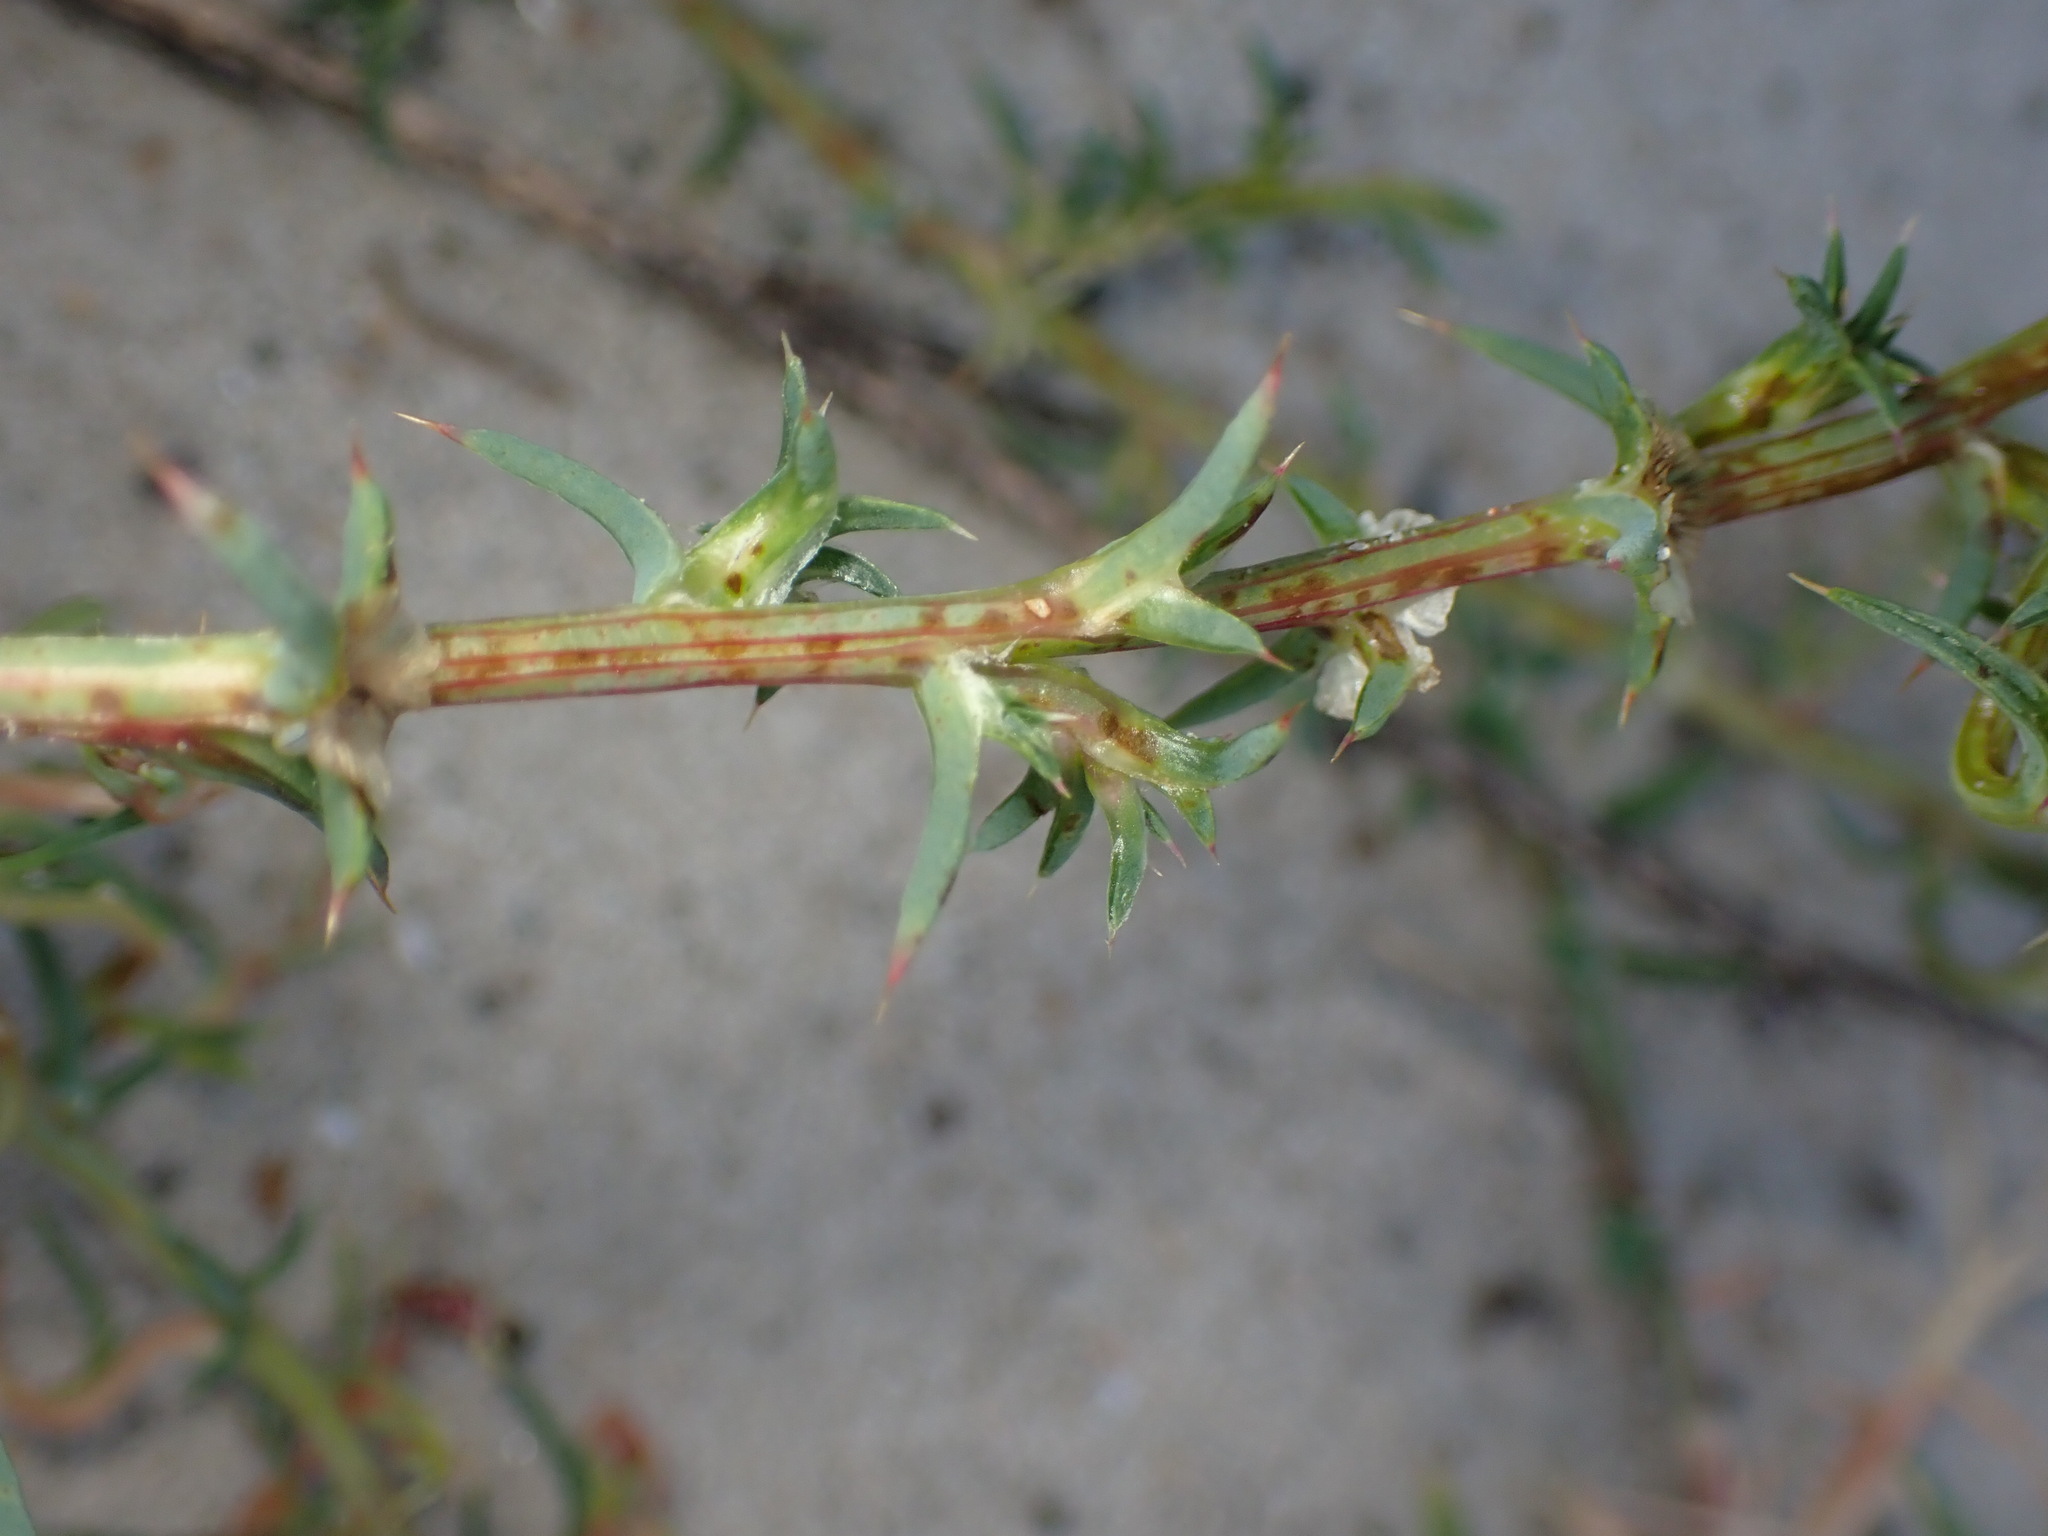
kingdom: Plantae
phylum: Tracheophyta
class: Magnoliopsida
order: Caryophyllales
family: Amaranthaceae
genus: Salsola
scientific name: Salsola australis
